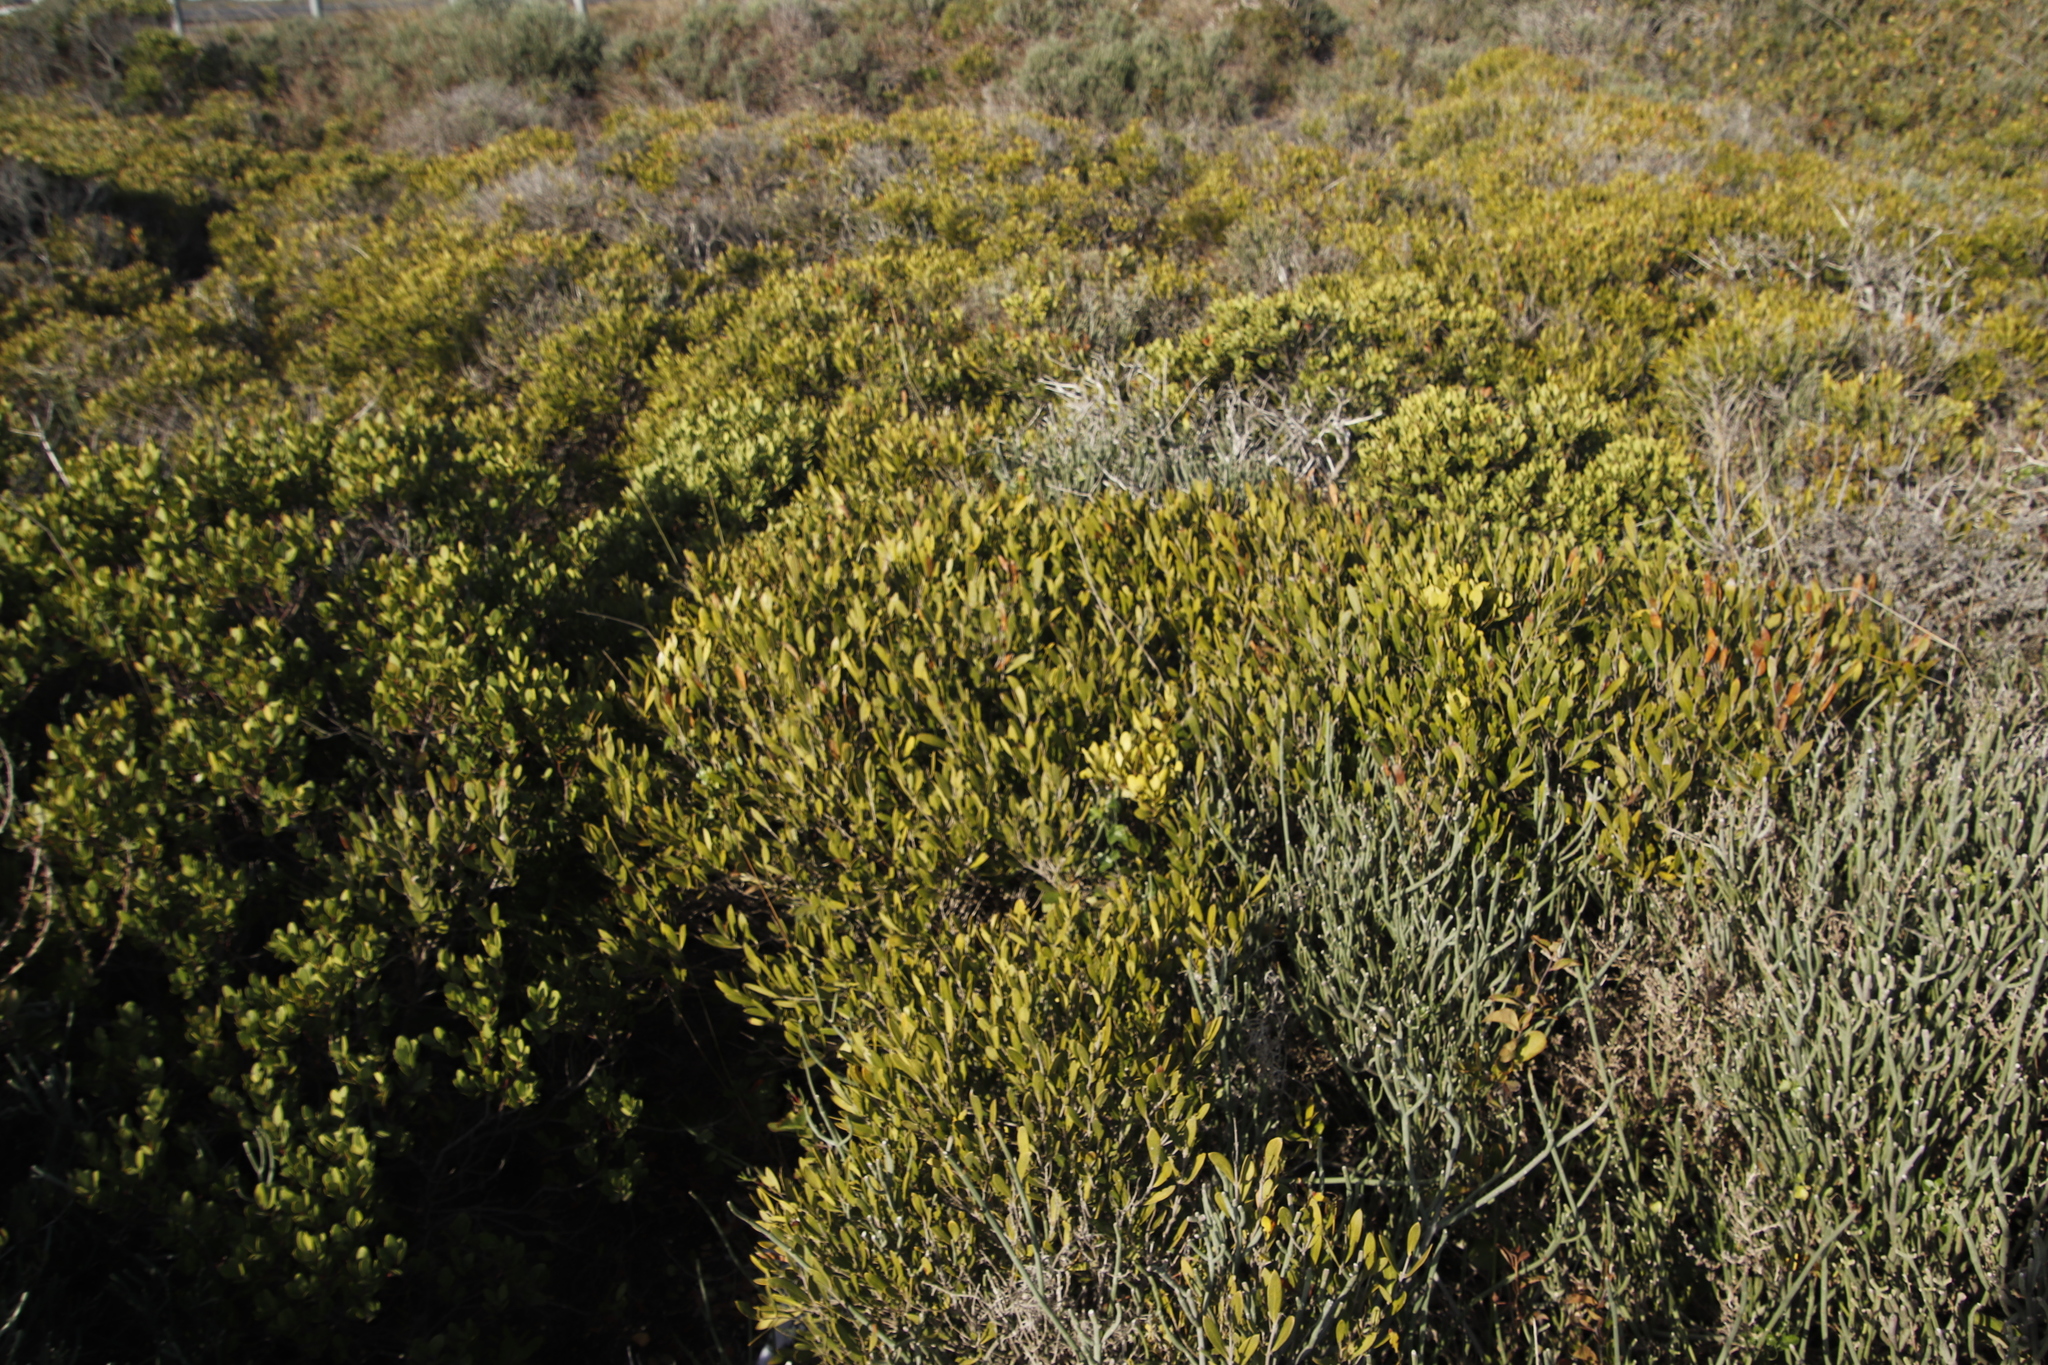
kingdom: Plantae
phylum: Tracheophyta
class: Magnoliopsida
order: Lamiales
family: Oleaceae
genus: Olea
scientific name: Olea exasperata
